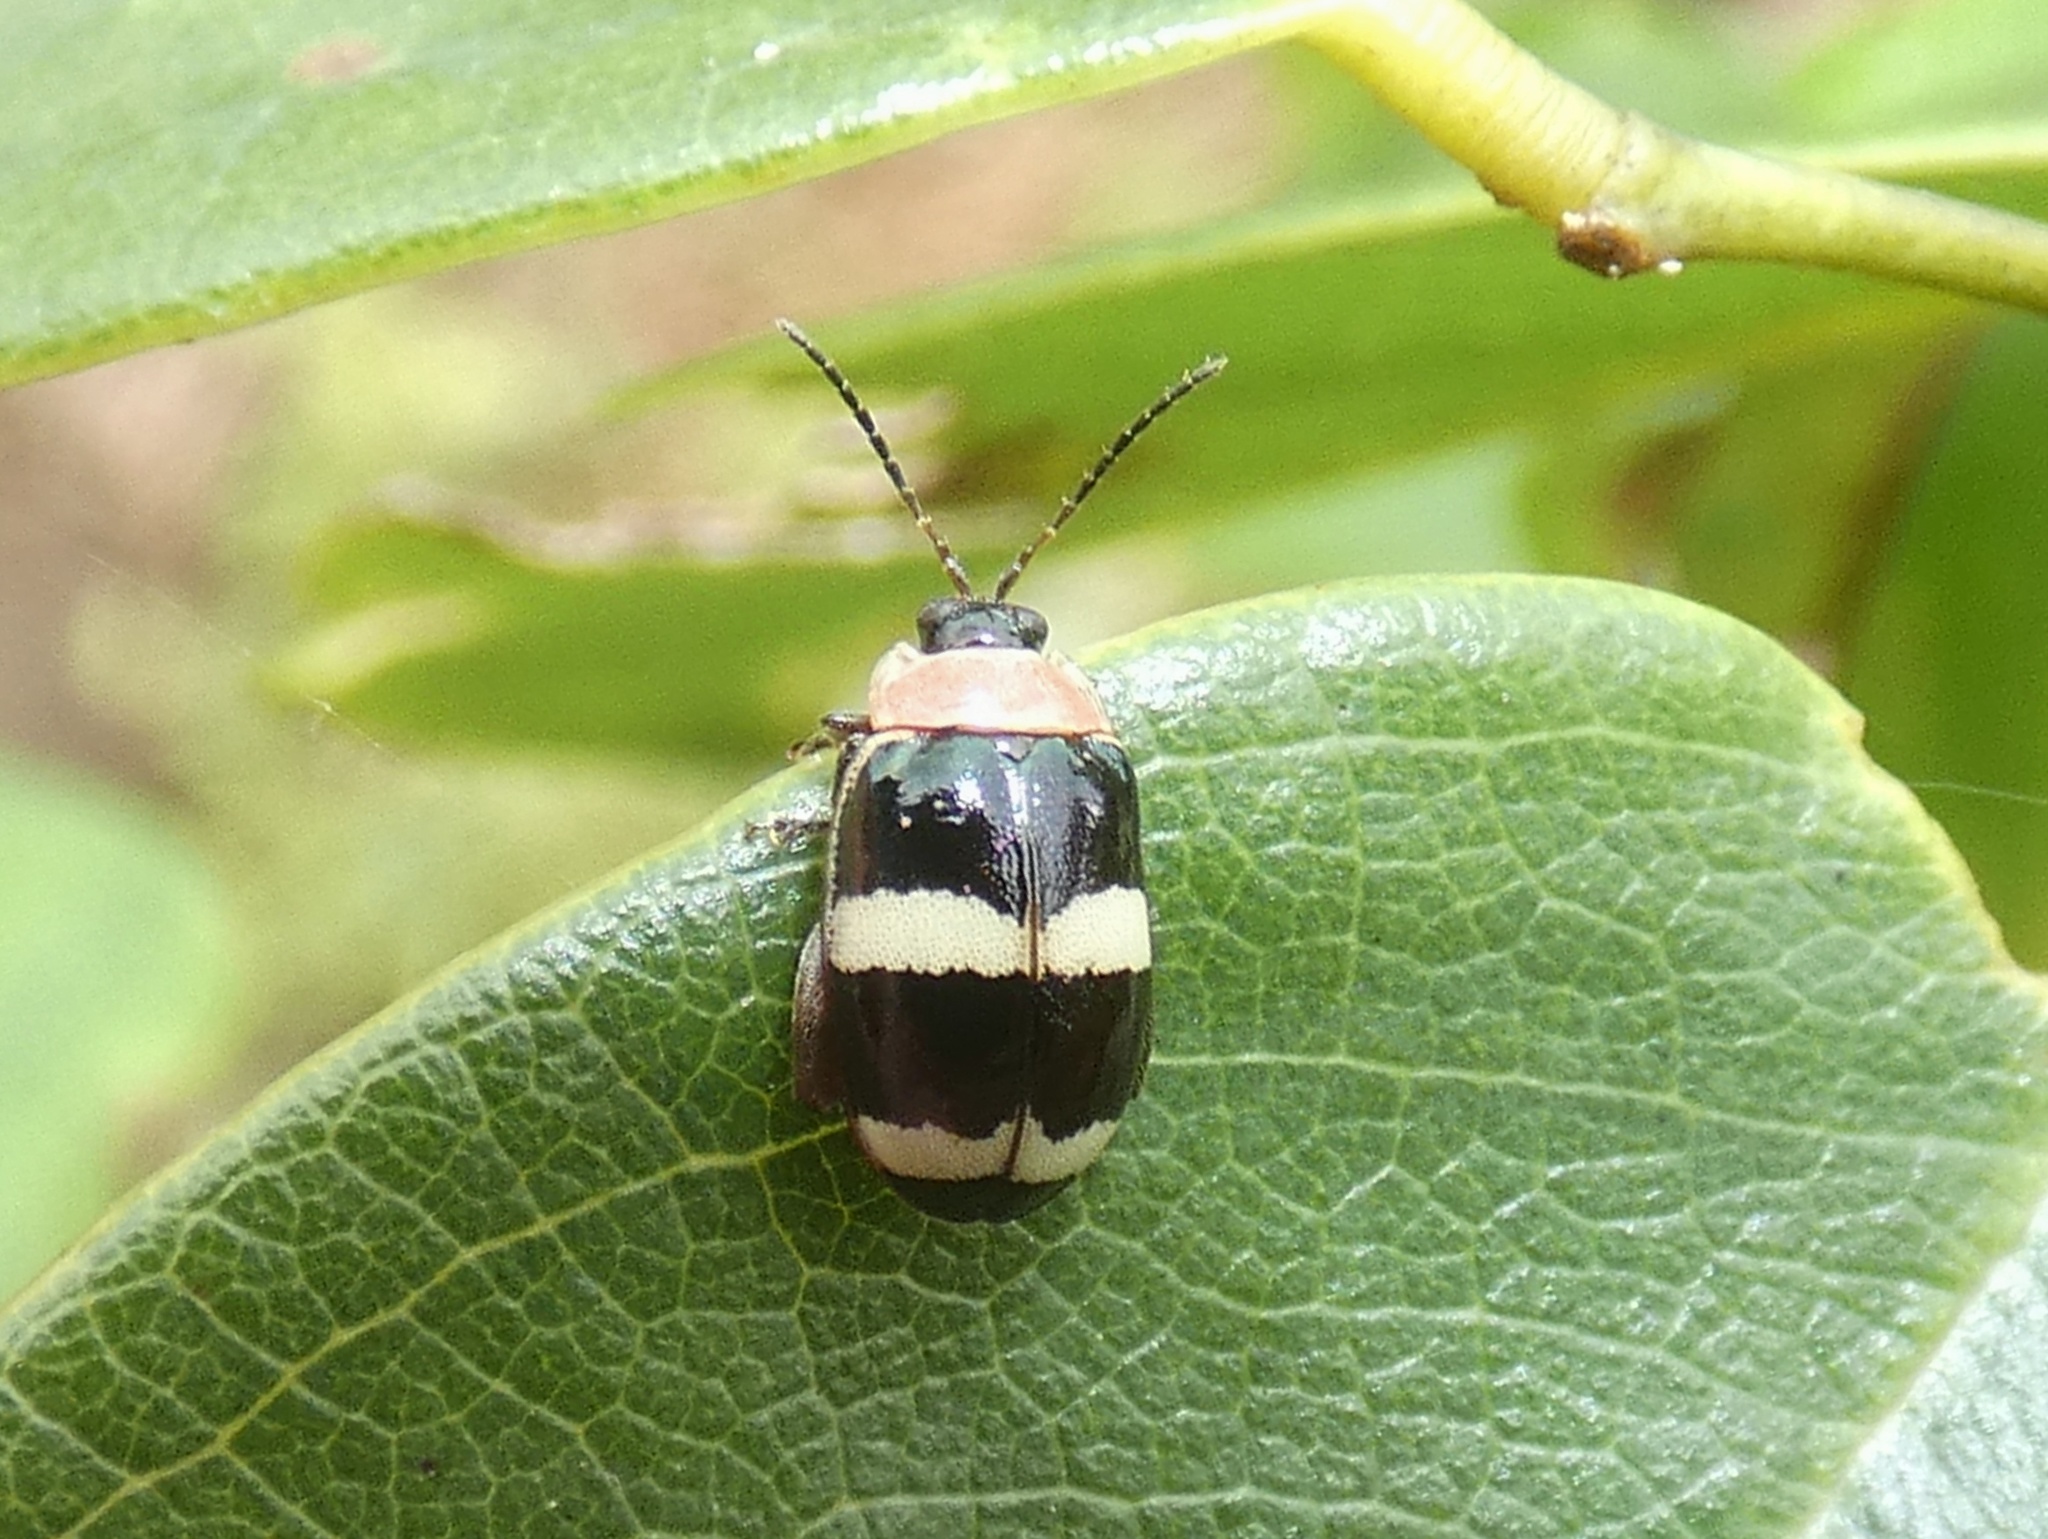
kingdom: Animalia
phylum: Arthropoda
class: Insecta
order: Coleoptera
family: Chrysomelidae
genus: Alagoasa
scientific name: Alagoasa trifasciata
